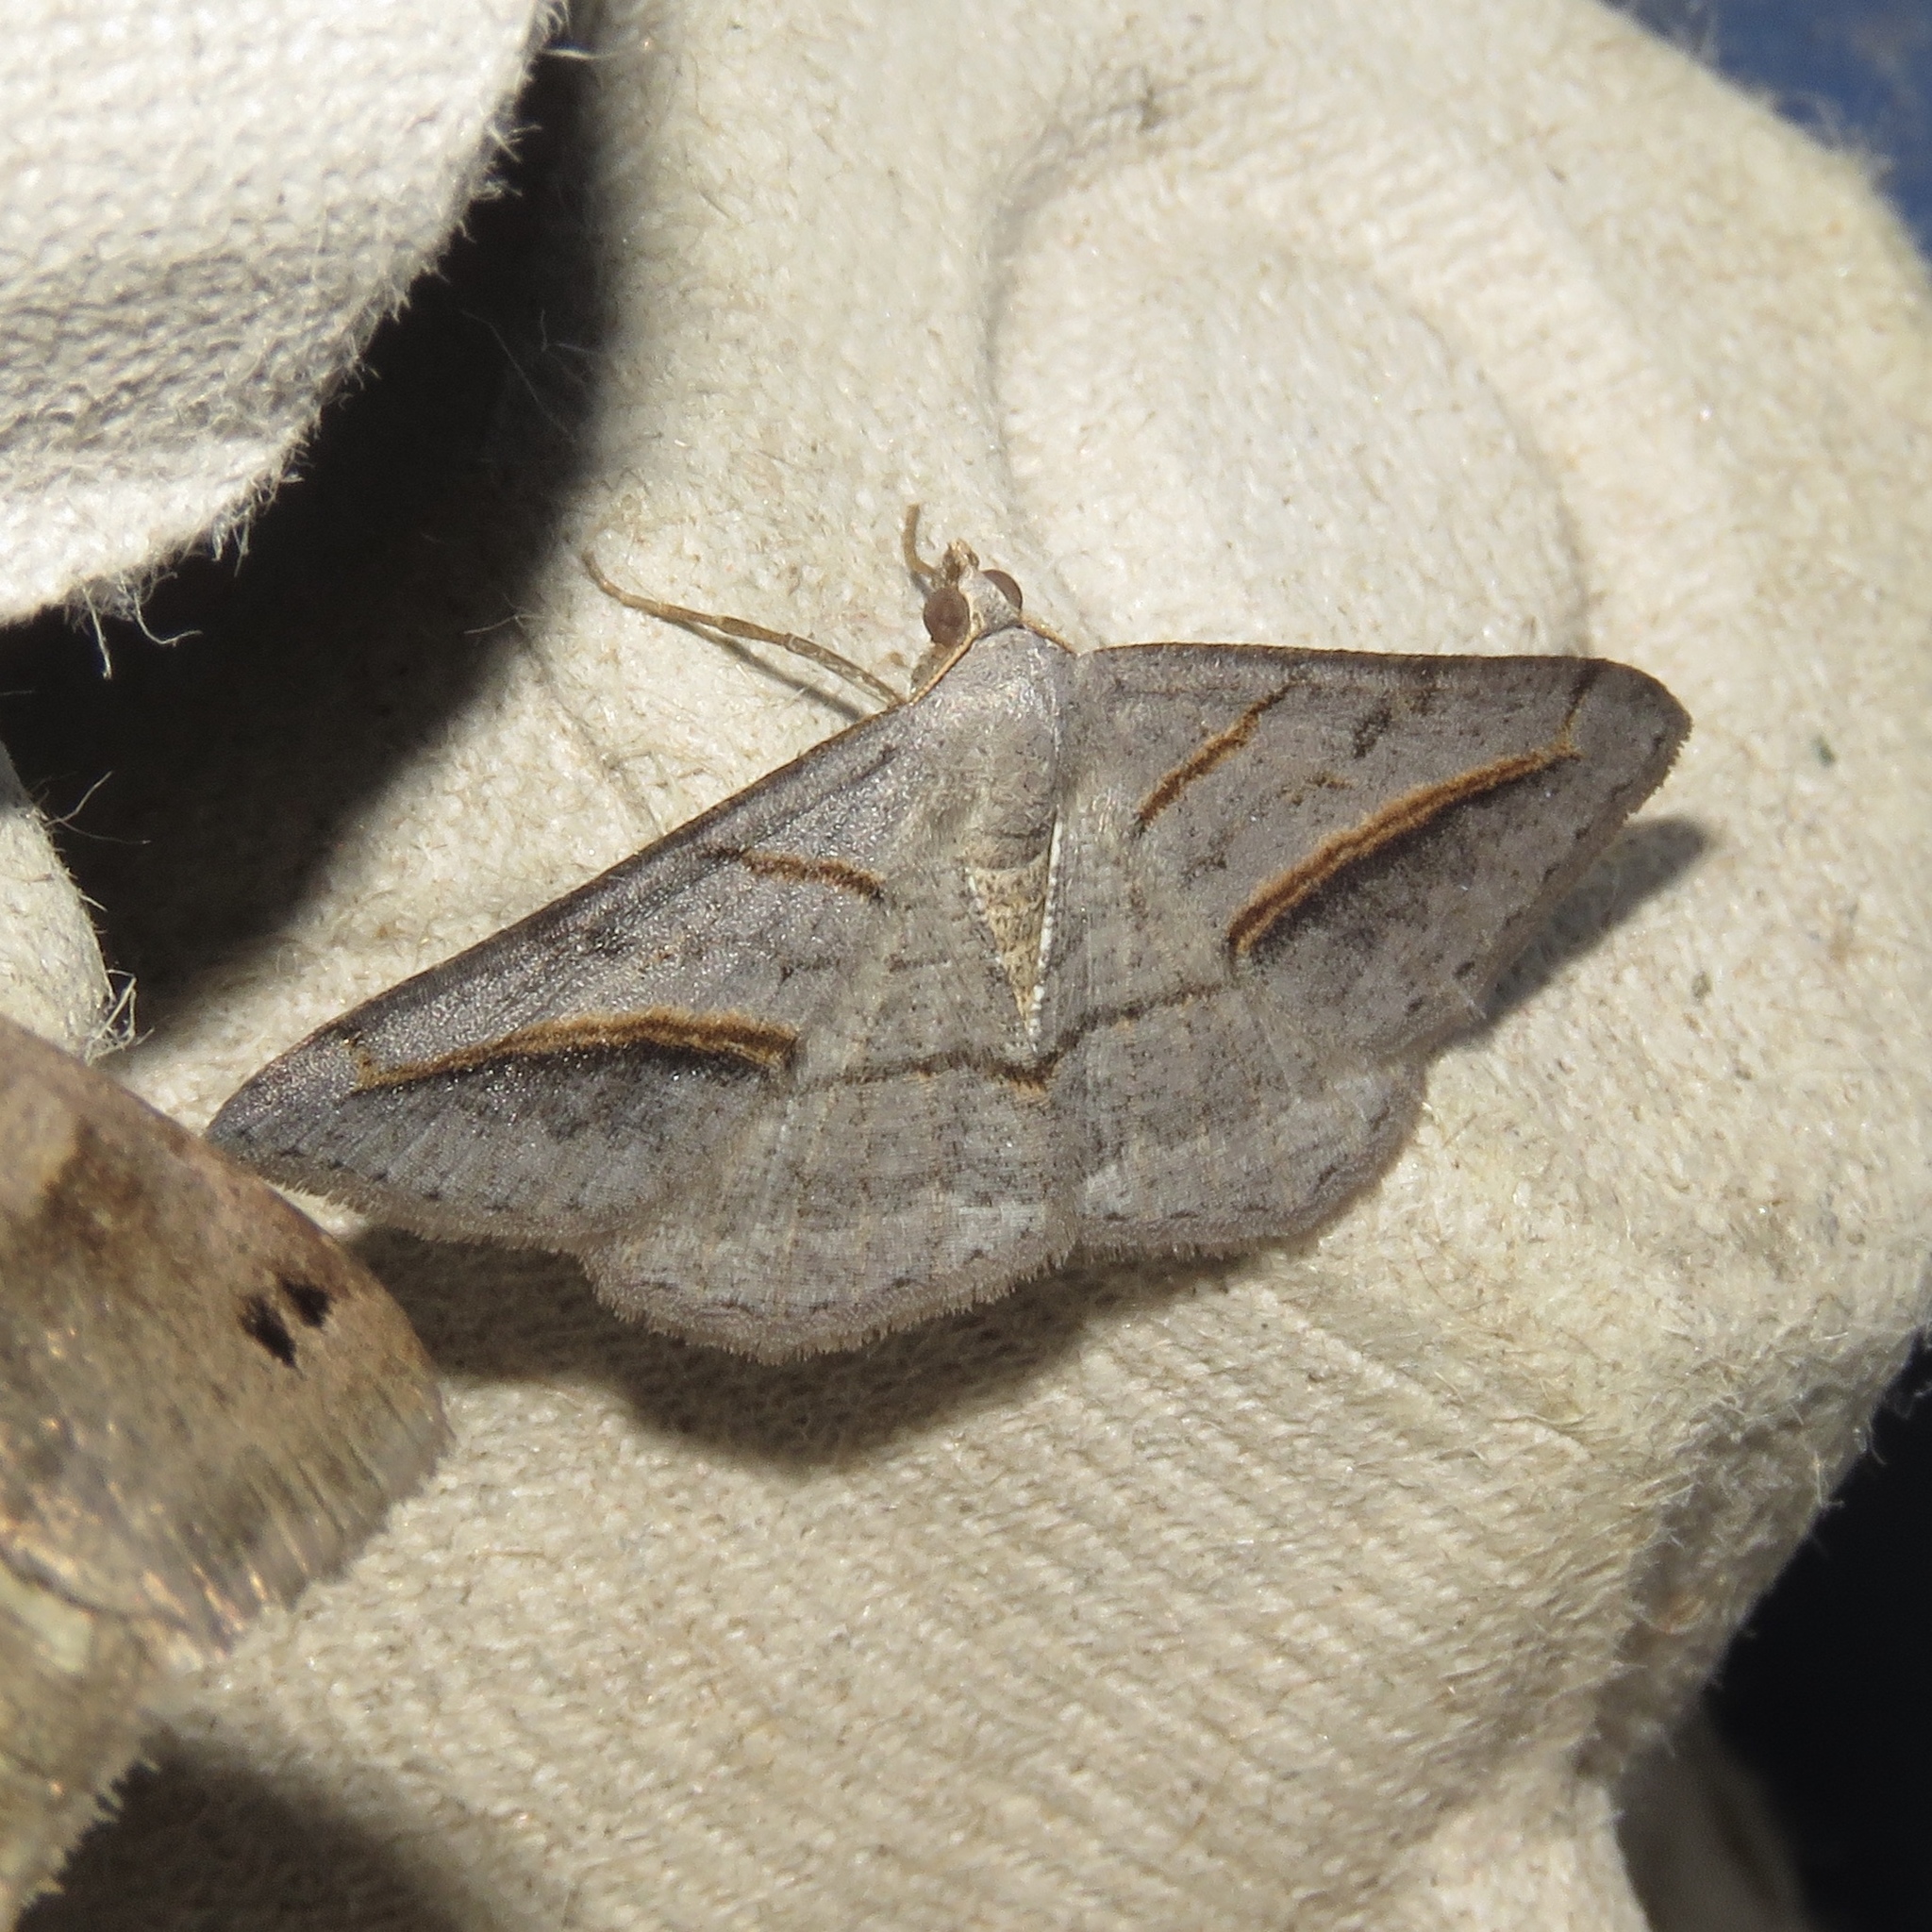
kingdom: Animalia
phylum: Arthropoda
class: Insecta
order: Lepidoptera
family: Geometridae
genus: Digrammia
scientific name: Digrammia mellistrigata
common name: Yellow-lined angle
